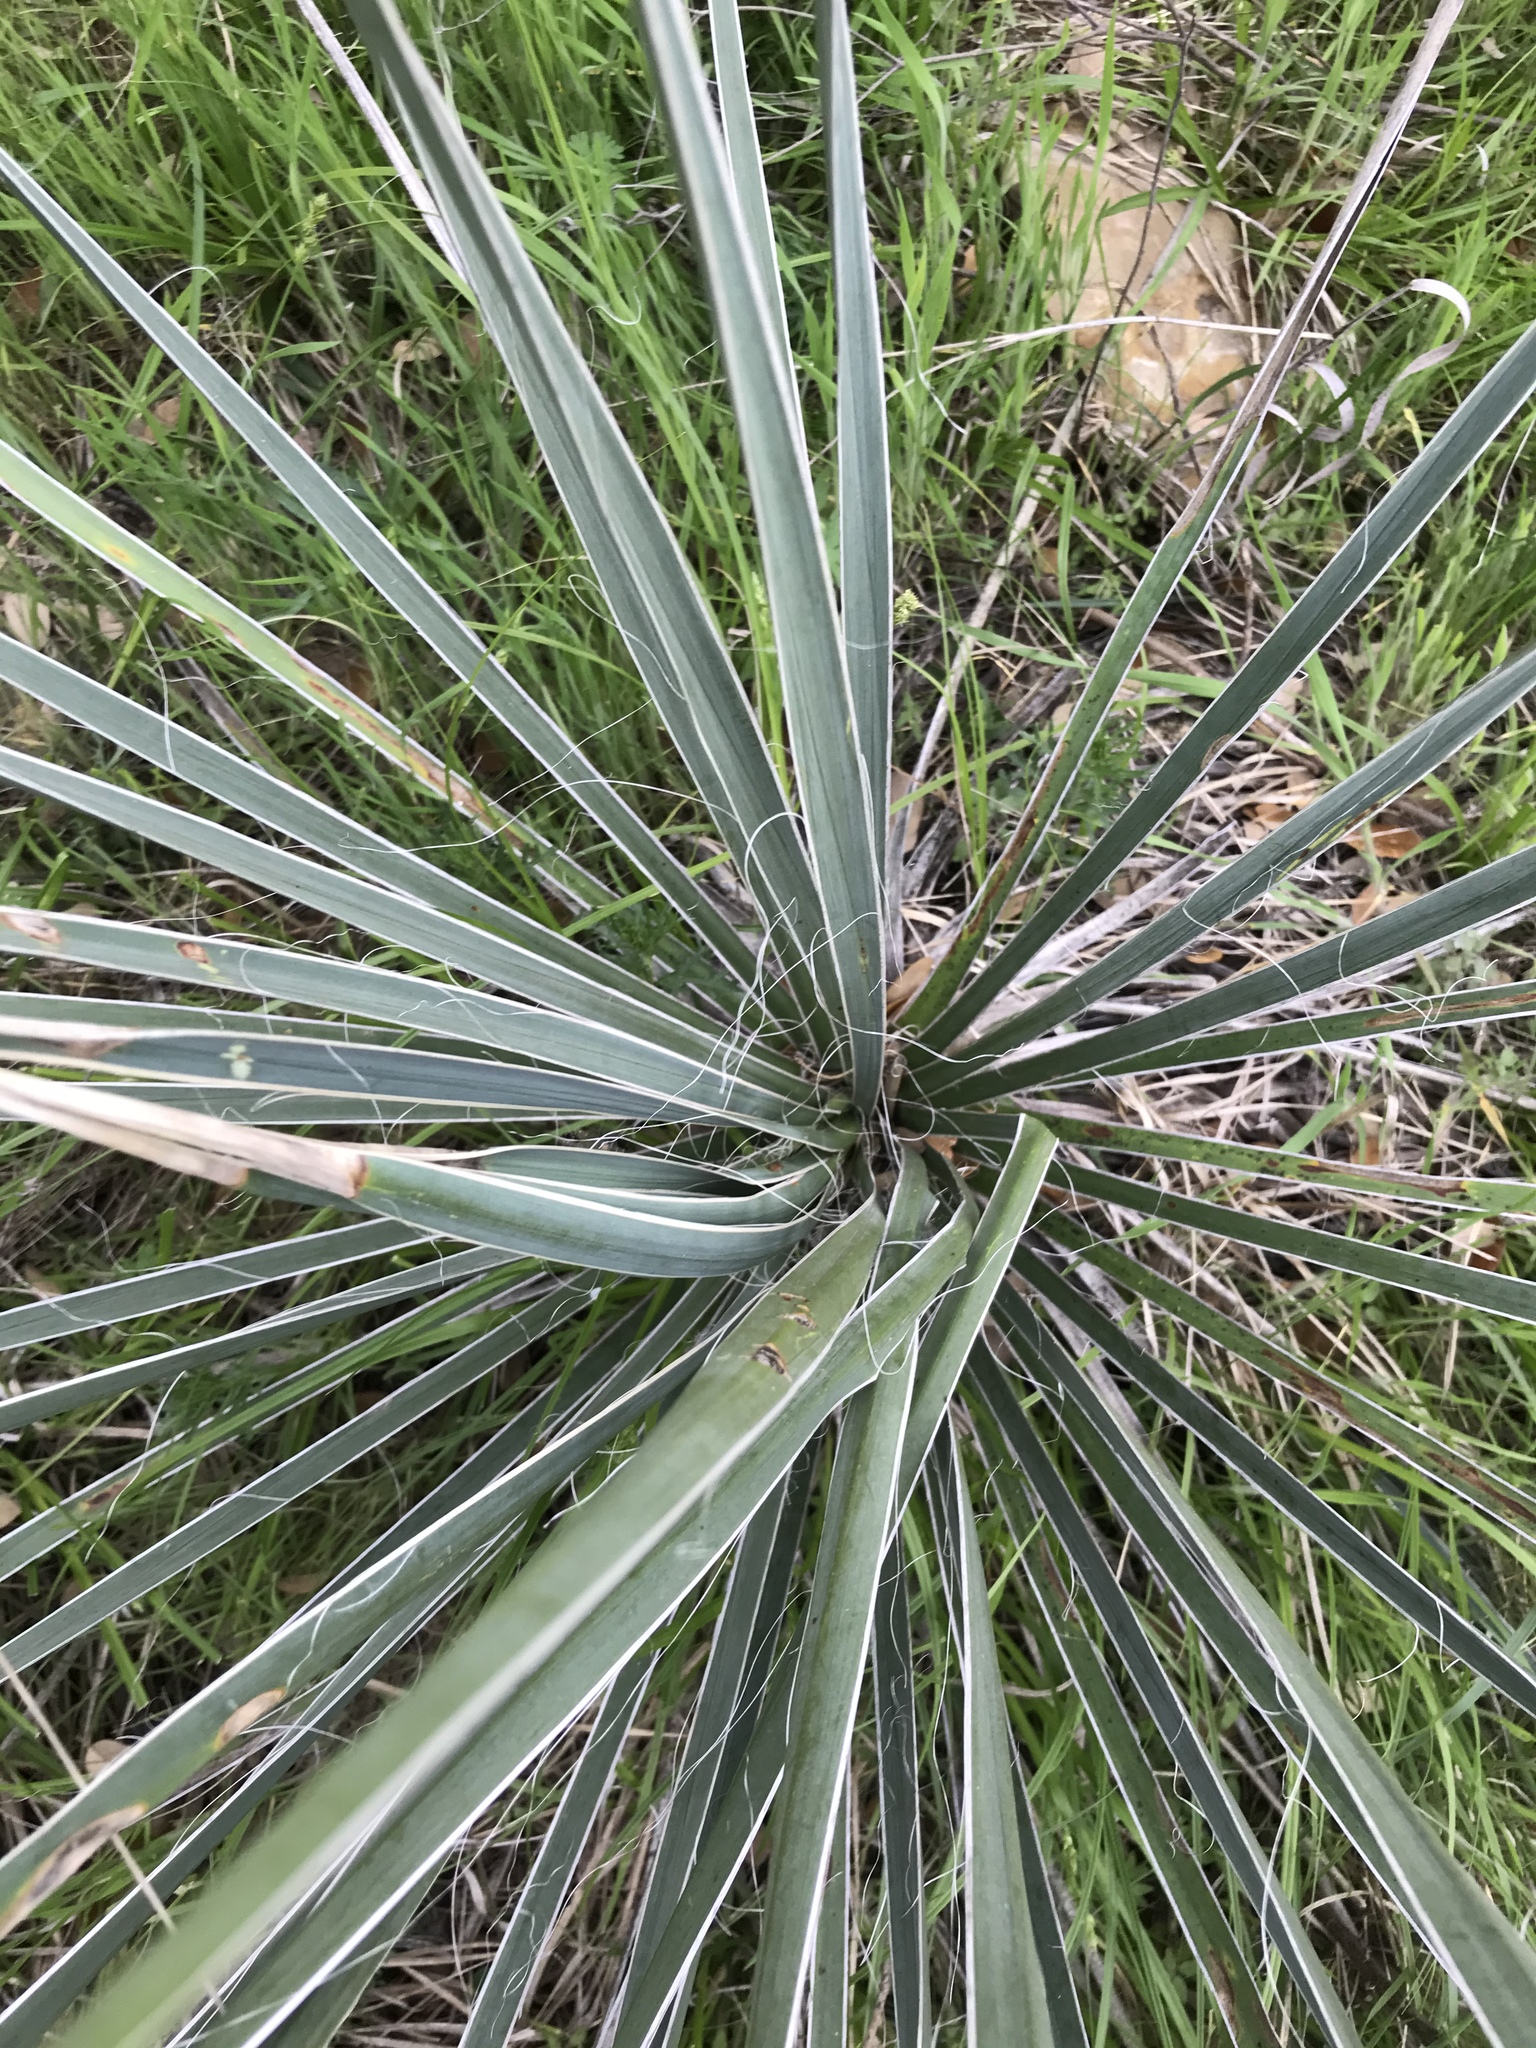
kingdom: Plantae
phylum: Tracheophyta
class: Liliopsida
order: Asparagales
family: Asparagaceae
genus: Yucca
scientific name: Yucca arkansana
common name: Arkansas yucca
